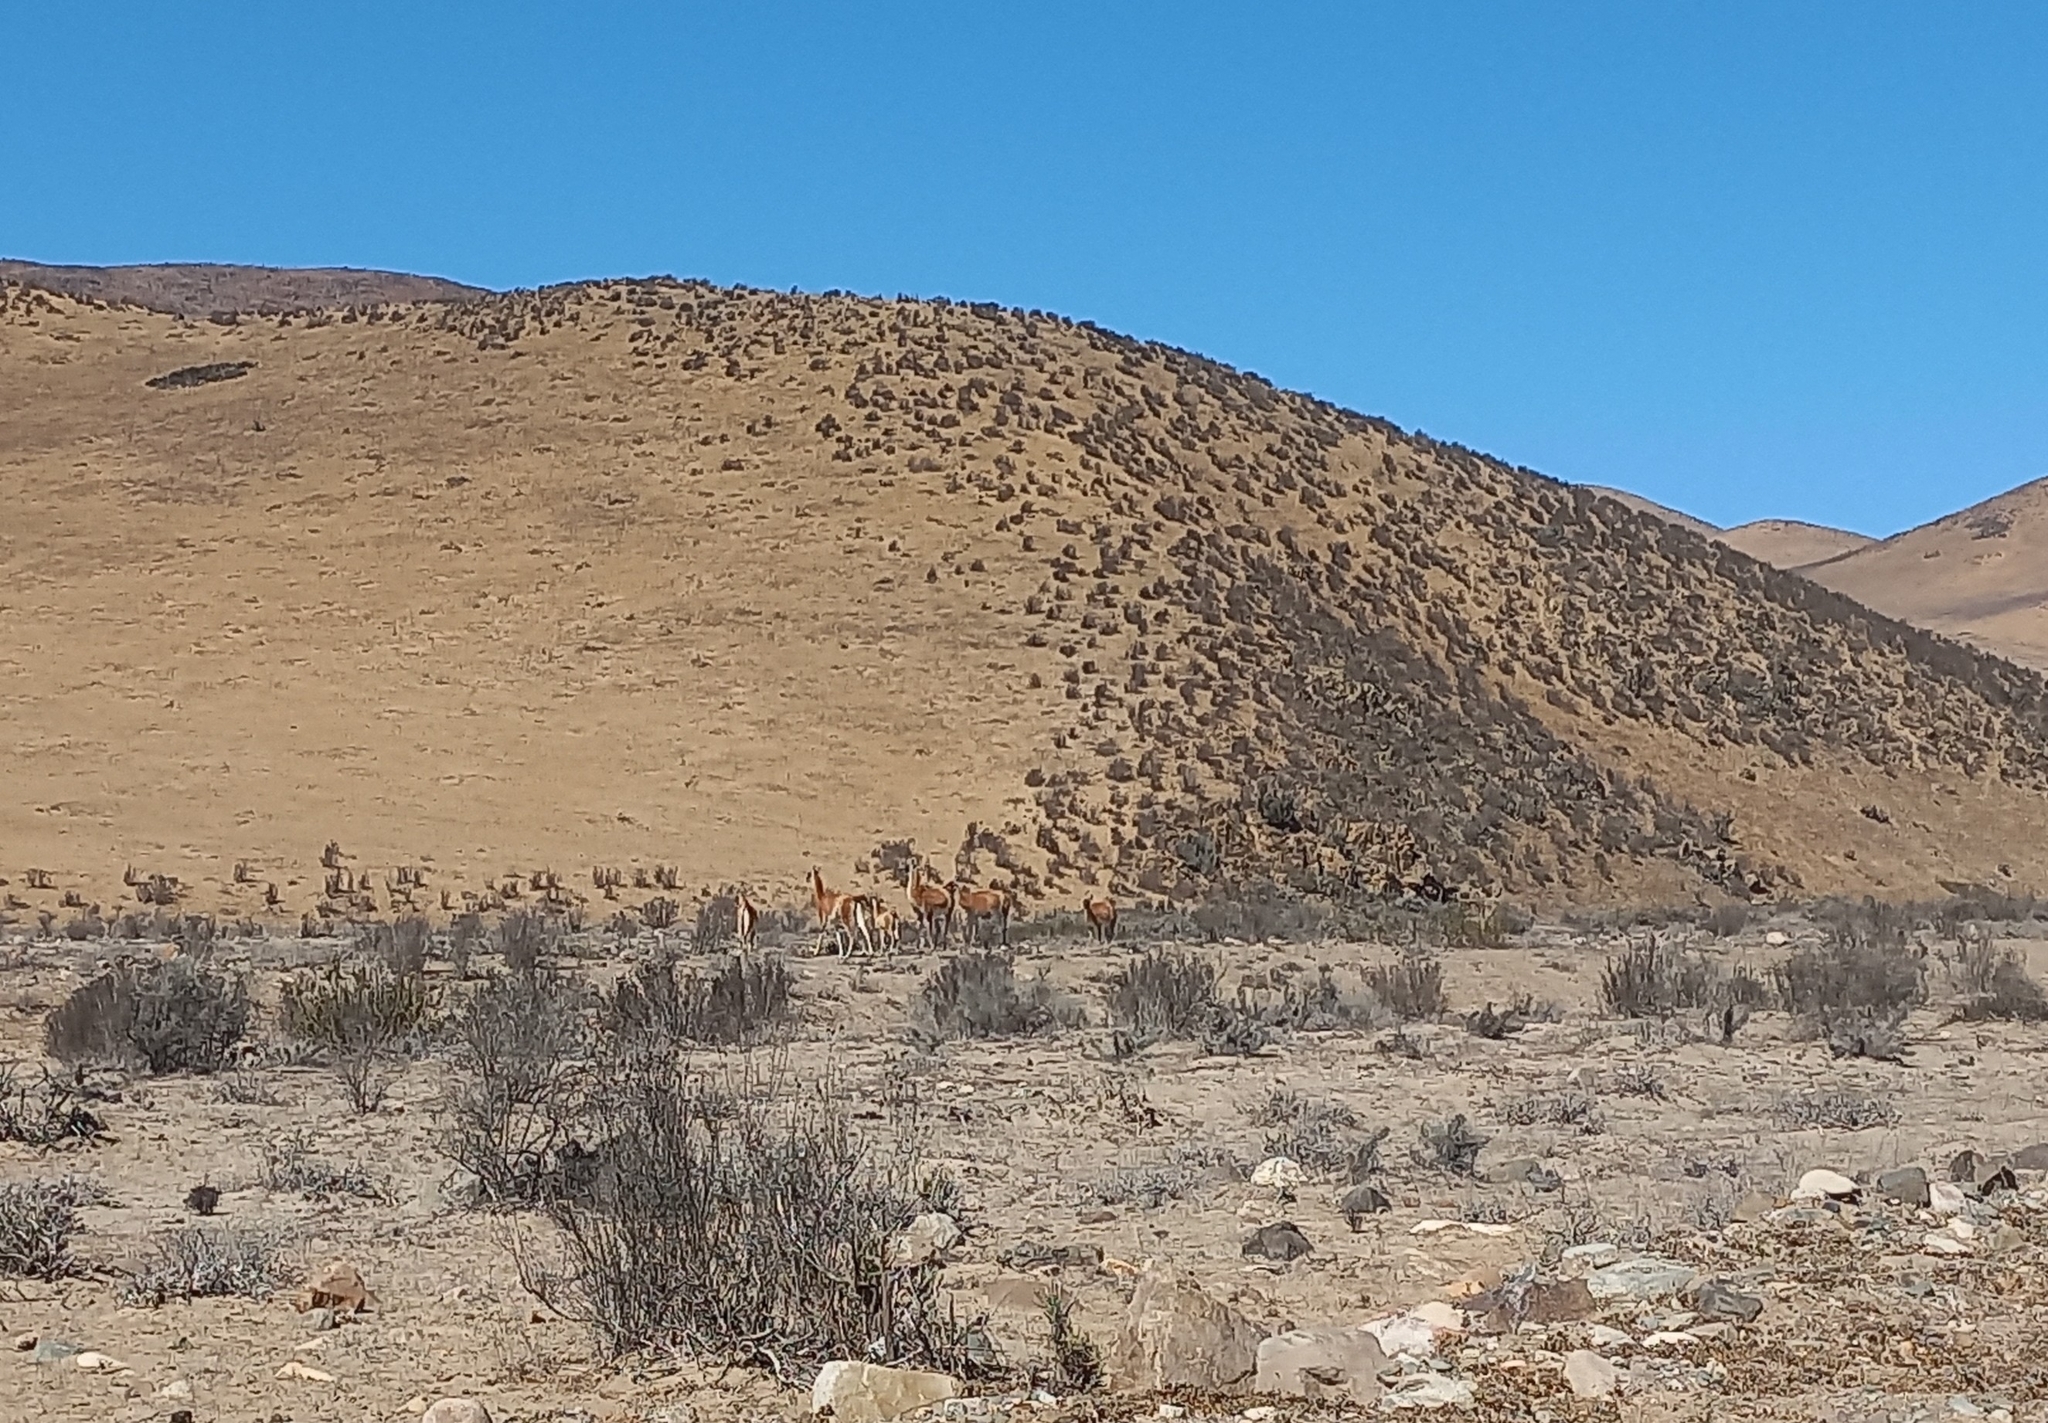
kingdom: Animalia
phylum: Chordata
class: Mammalia
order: Artiodactyla
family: Camelidae
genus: Lama
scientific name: Lama glama
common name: Llama
